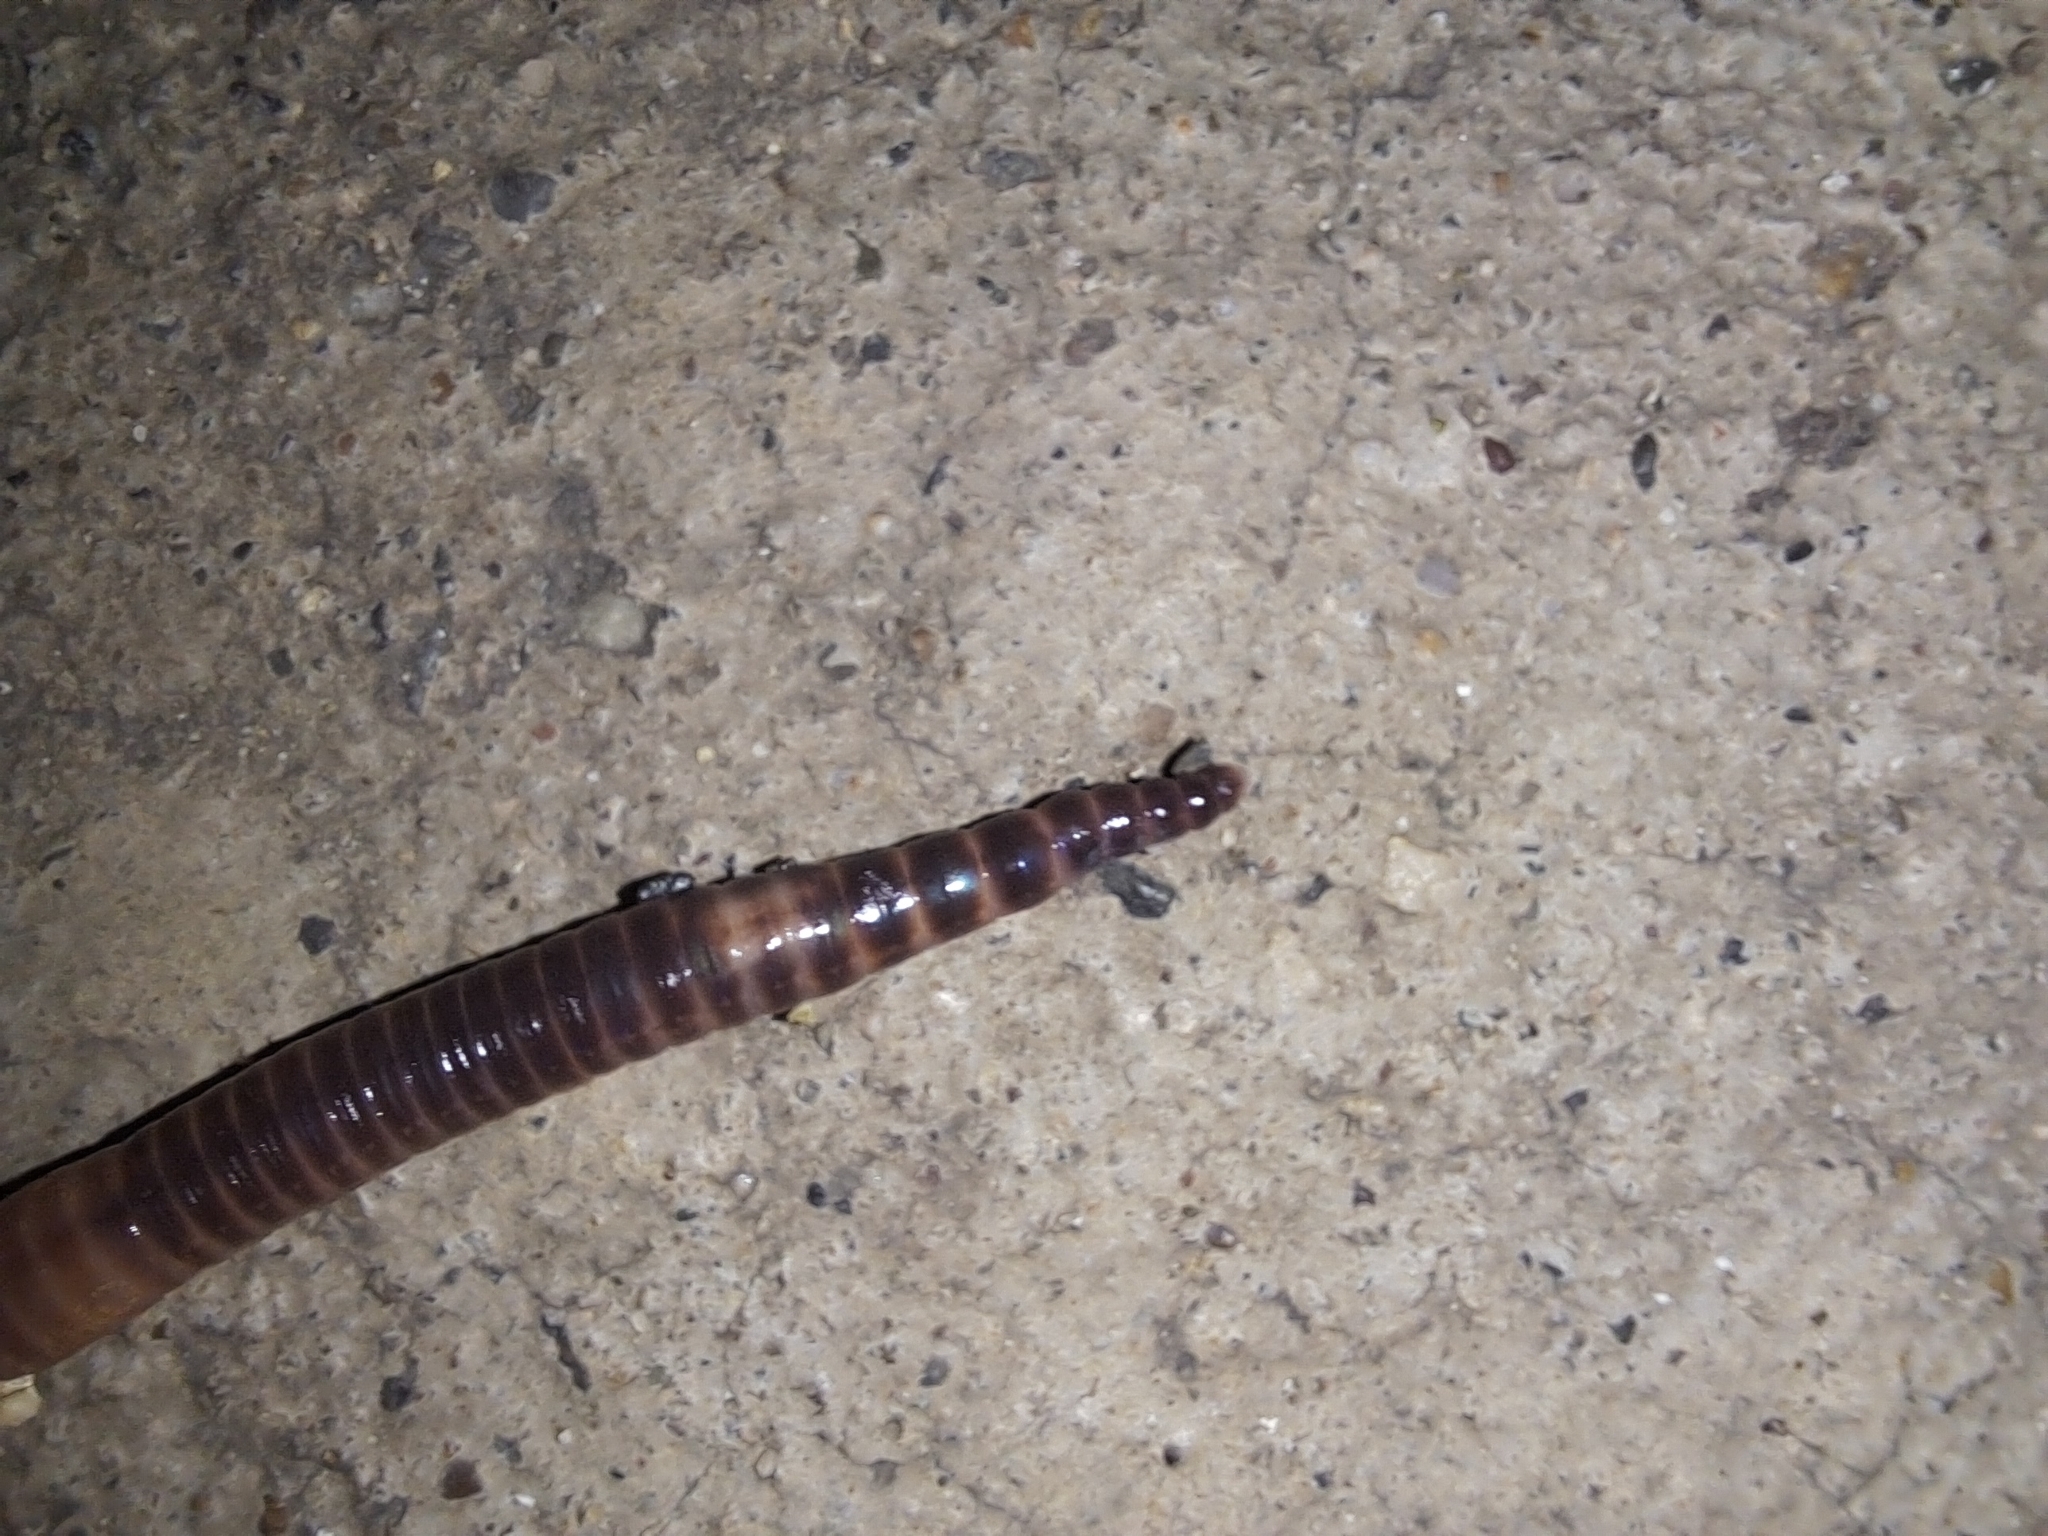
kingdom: Animalia
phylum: Annelida
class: Clitellata
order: Crassiclitellata
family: Lumbricidae
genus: Eisenia
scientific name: Eisenia fetida
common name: Red wiggler
